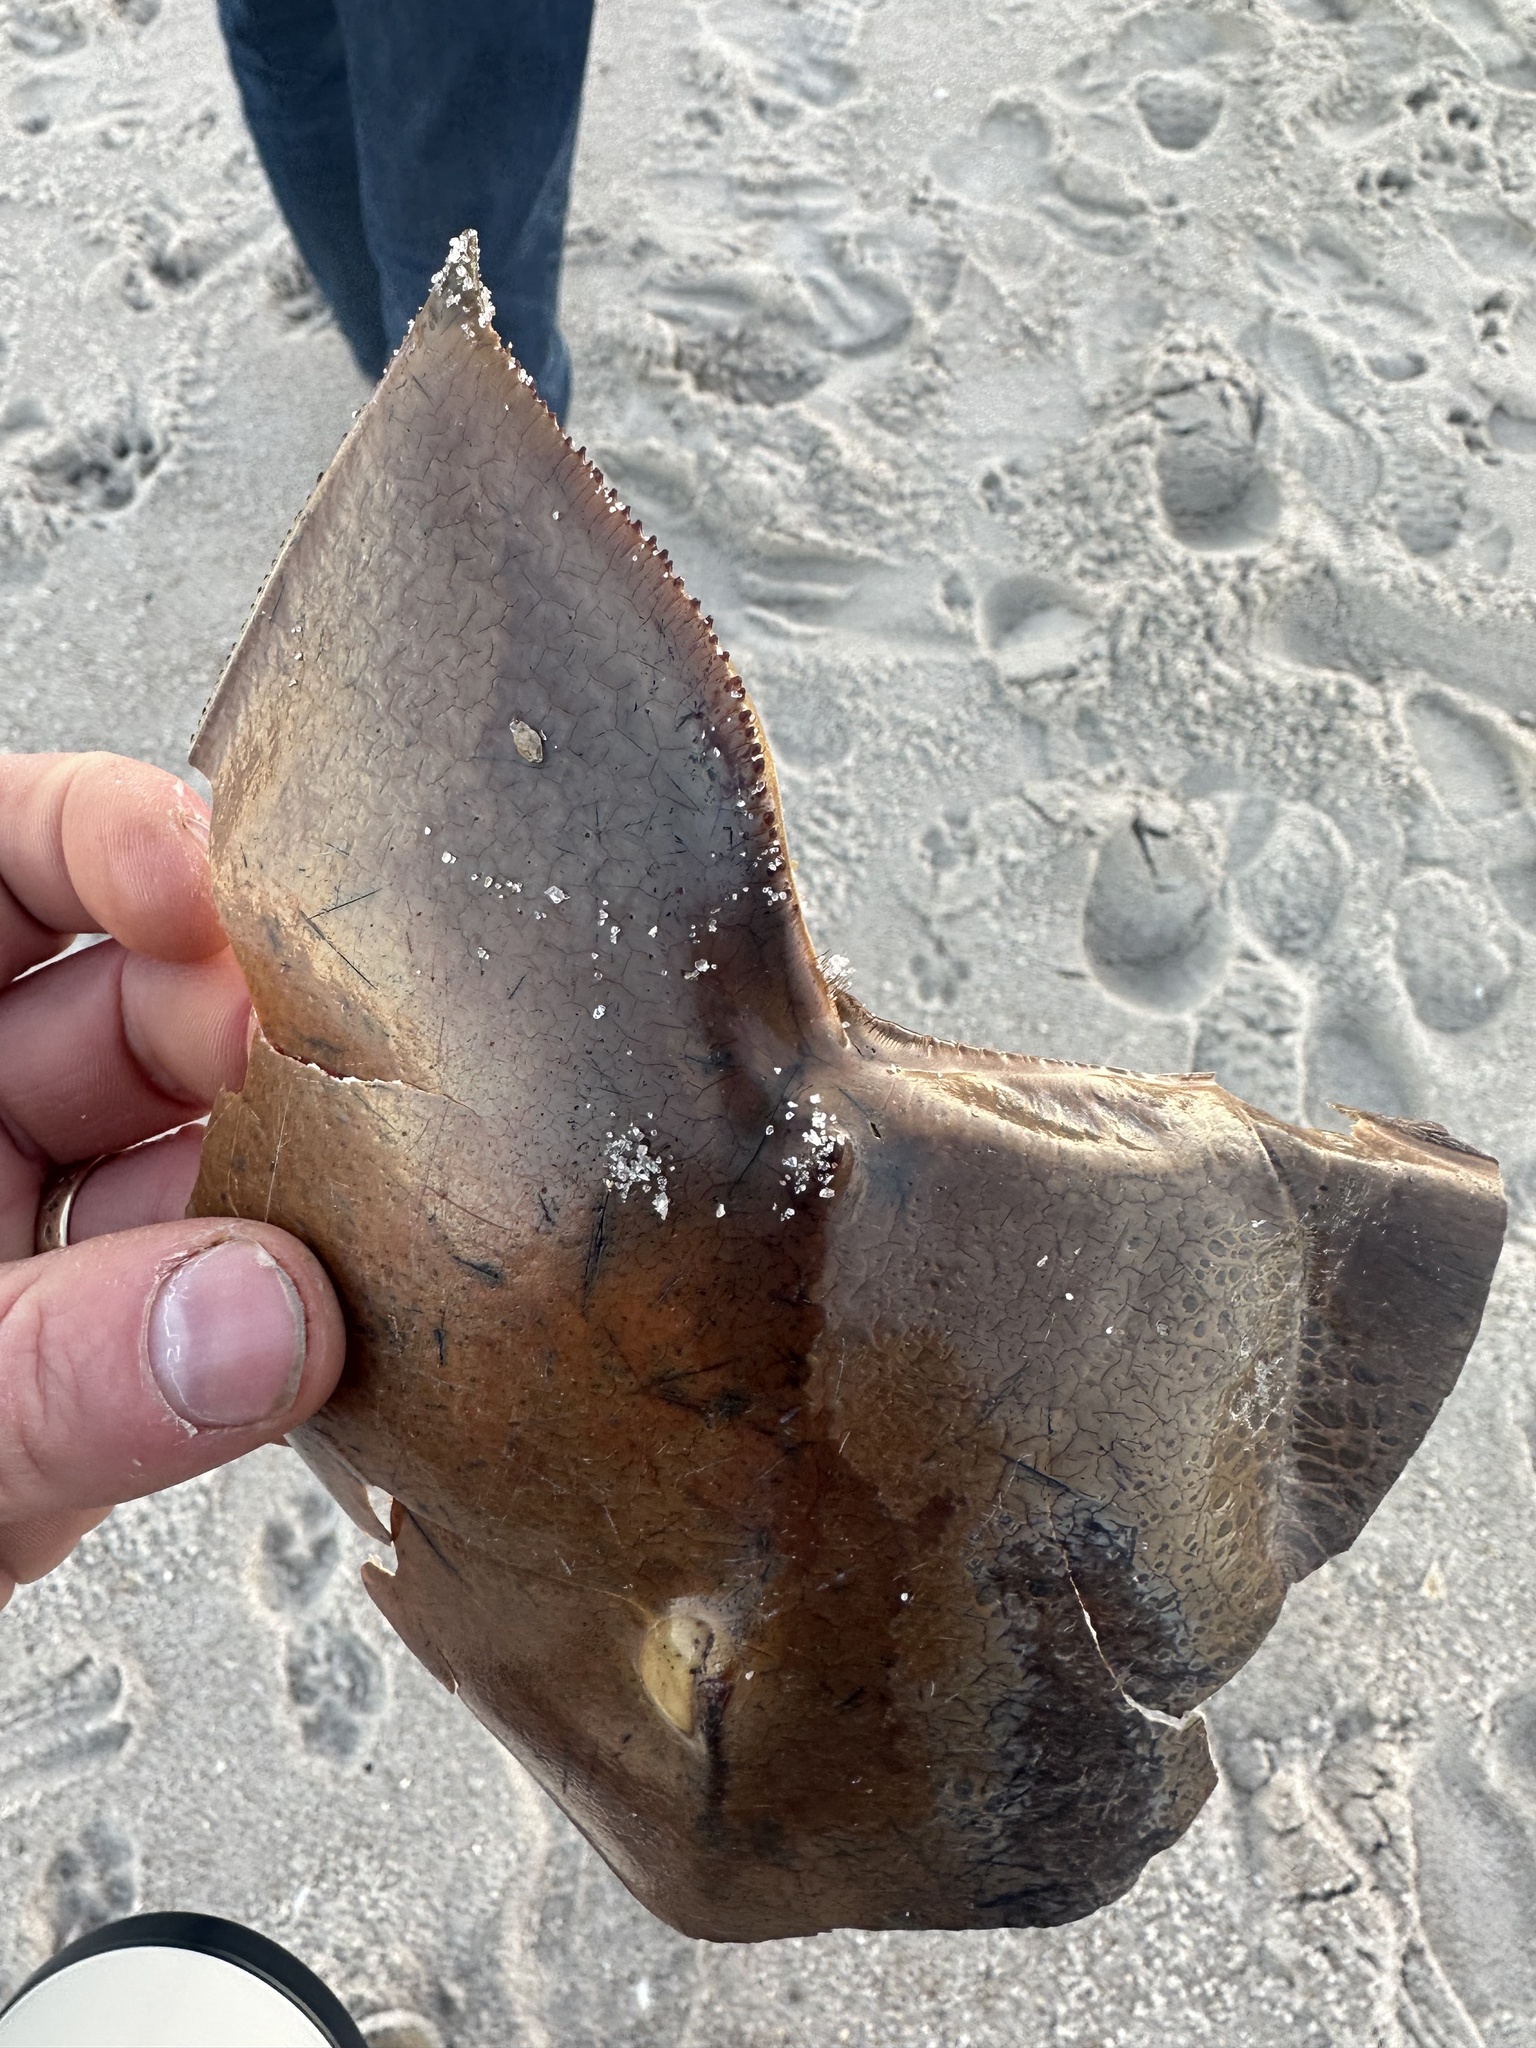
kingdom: Animalia
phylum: Arthropoda
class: Merostomata
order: Xiphosurida
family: Limulidae
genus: Limulus
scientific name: Limulus polyphemus
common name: Horseshoe crab
